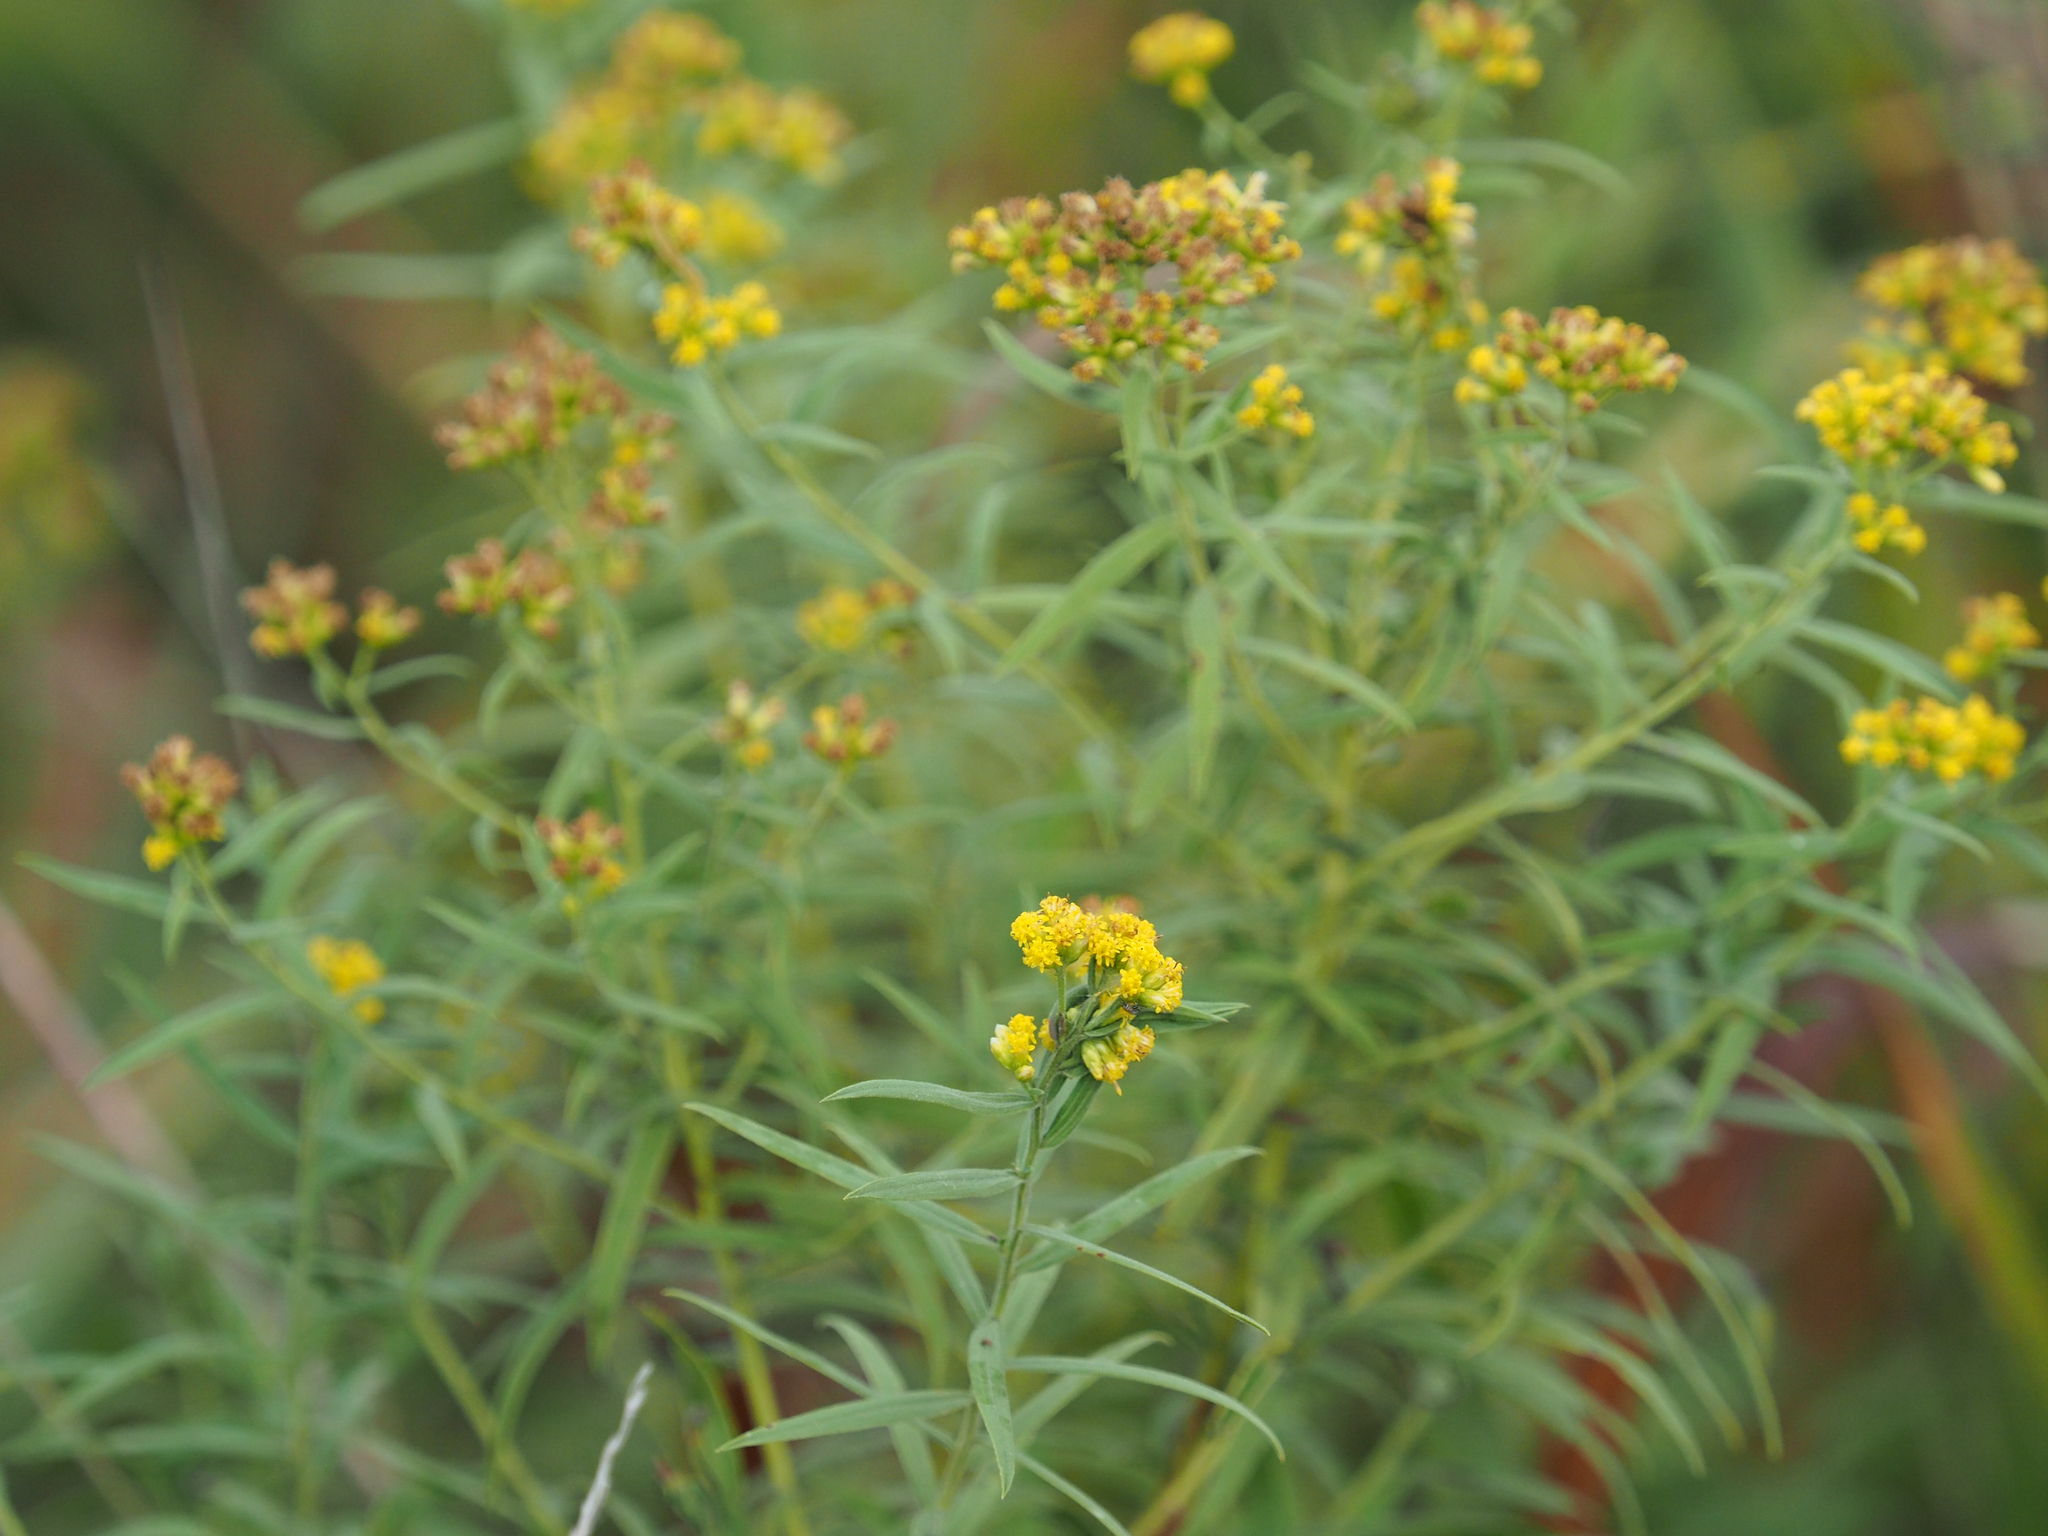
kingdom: Plantae
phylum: Tracheophyta
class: Magnoliopsida
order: Asterales
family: Asteraceae
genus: Euthamia
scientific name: Euthamia graminifolia
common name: Common goldentop
